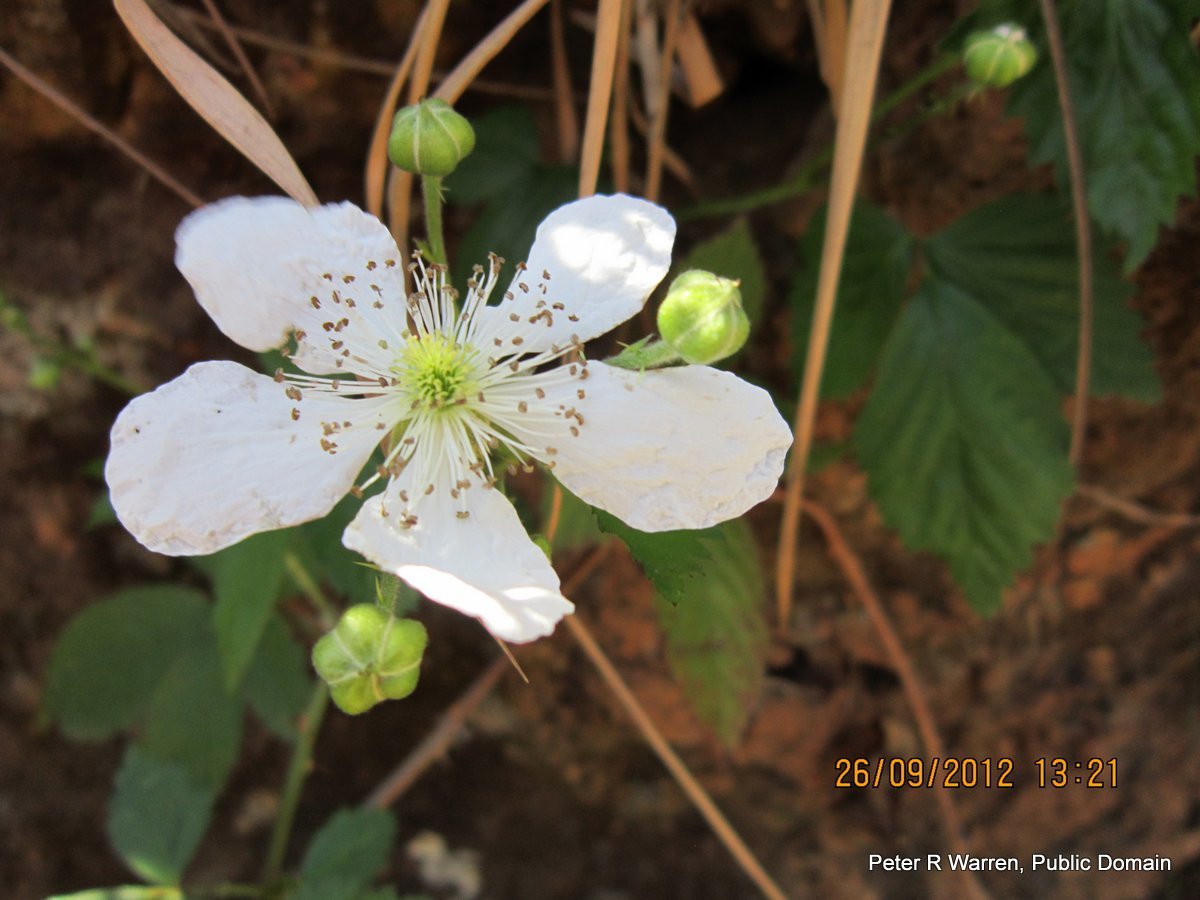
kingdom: Plantae
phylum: Tracheophyta
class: Magnoliopsida
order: Rosales
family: Rosaceae
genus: Rubus
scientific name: Rubus cuneifolius
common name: American bramble
